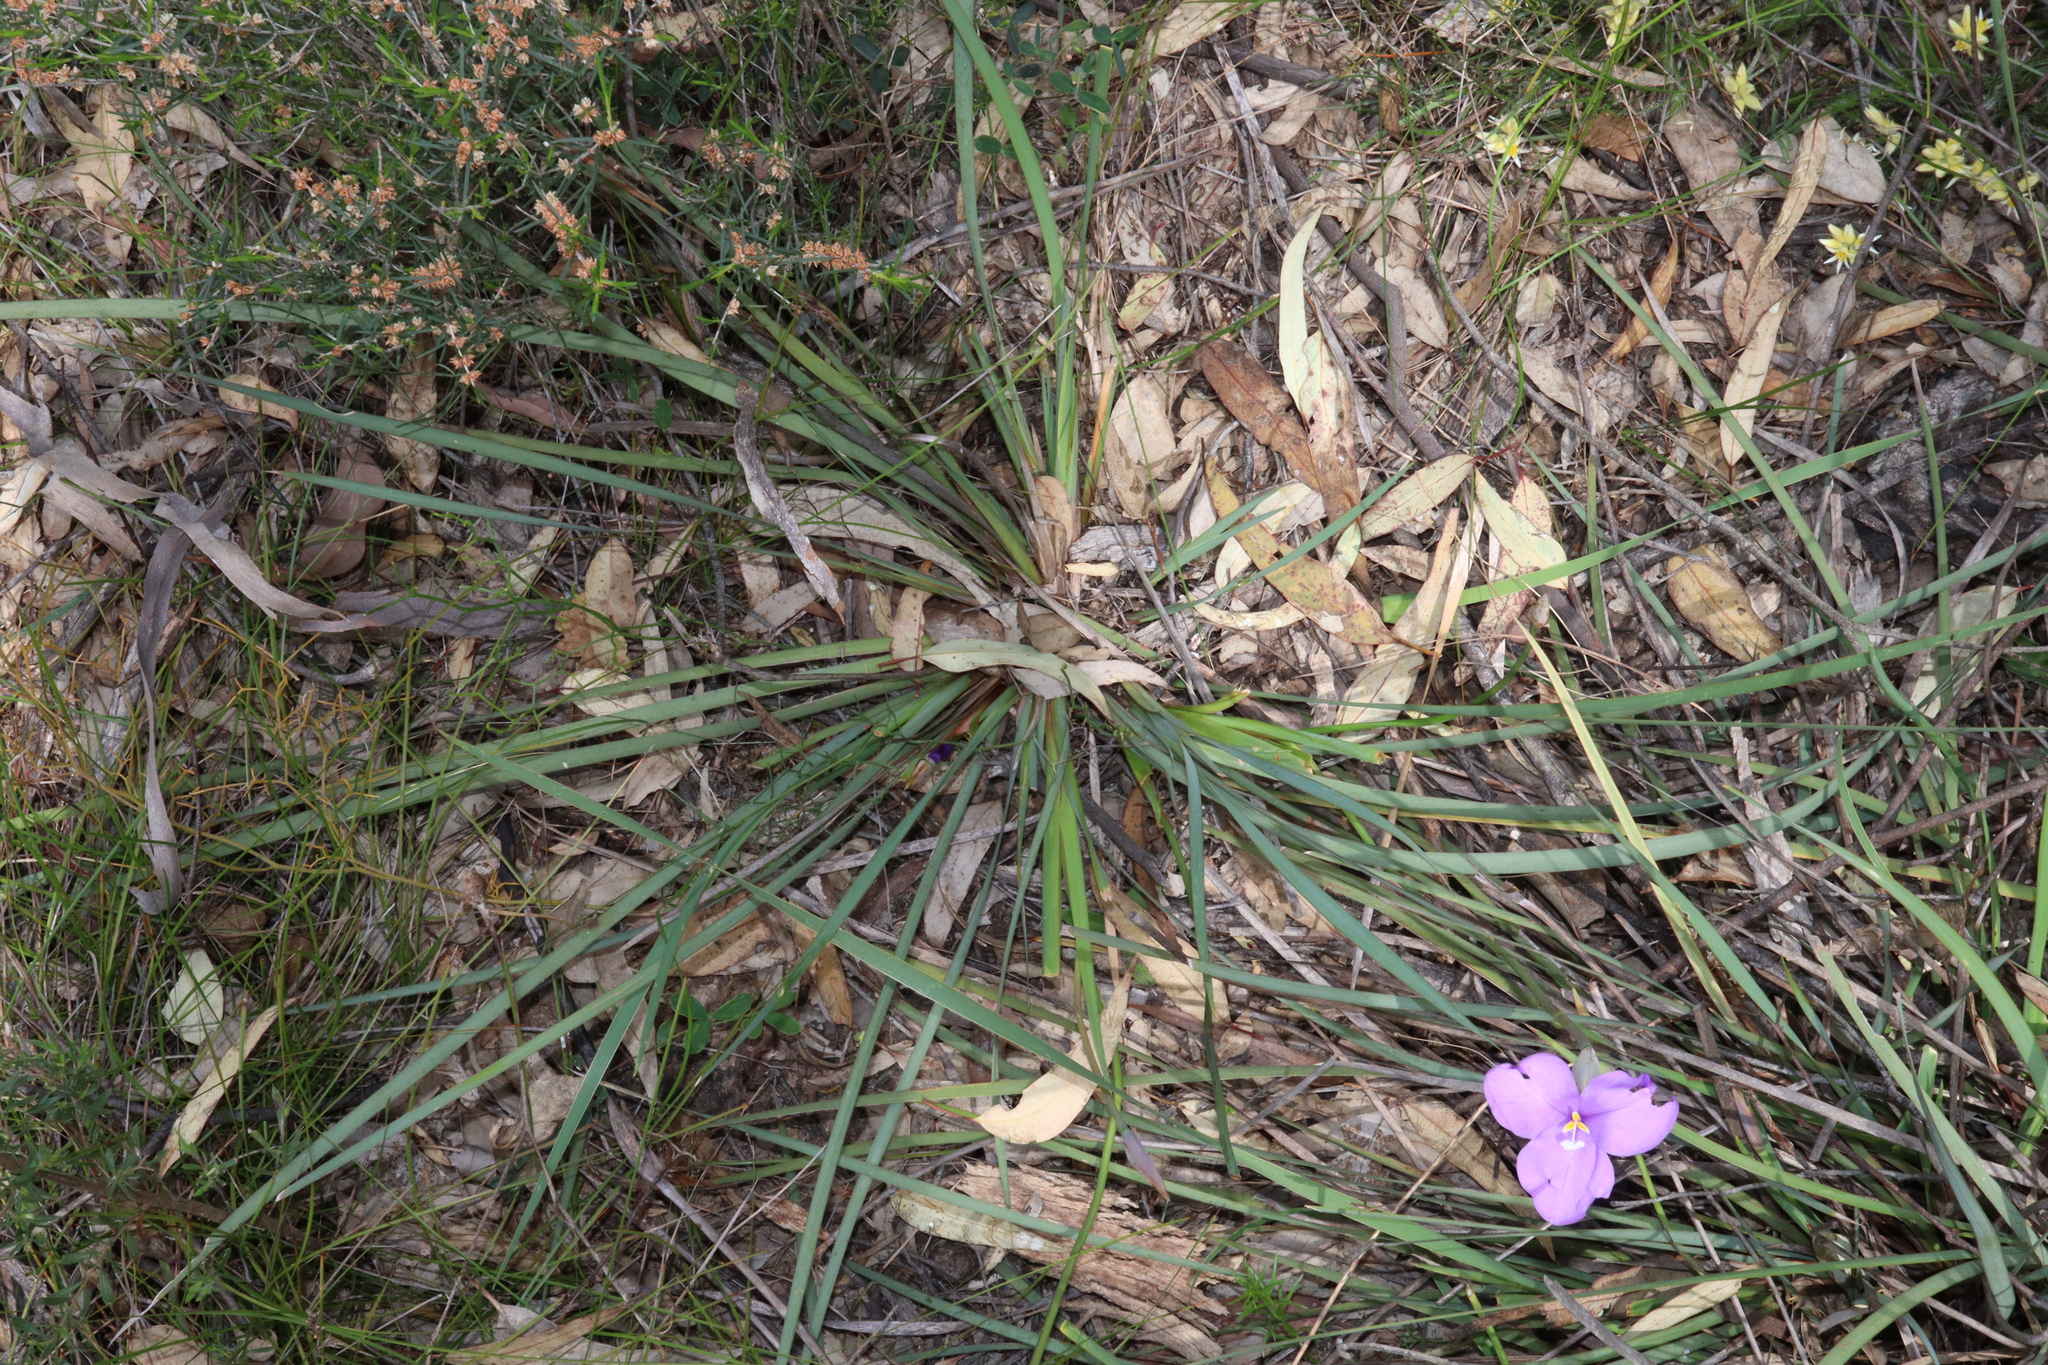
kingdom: Plantae
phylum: Tracheophyta
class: Liliopsida
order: Asparagales
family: Iridaceae
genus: Patersonia
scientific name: Patersonia occidentalis
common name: Long purple-flag
